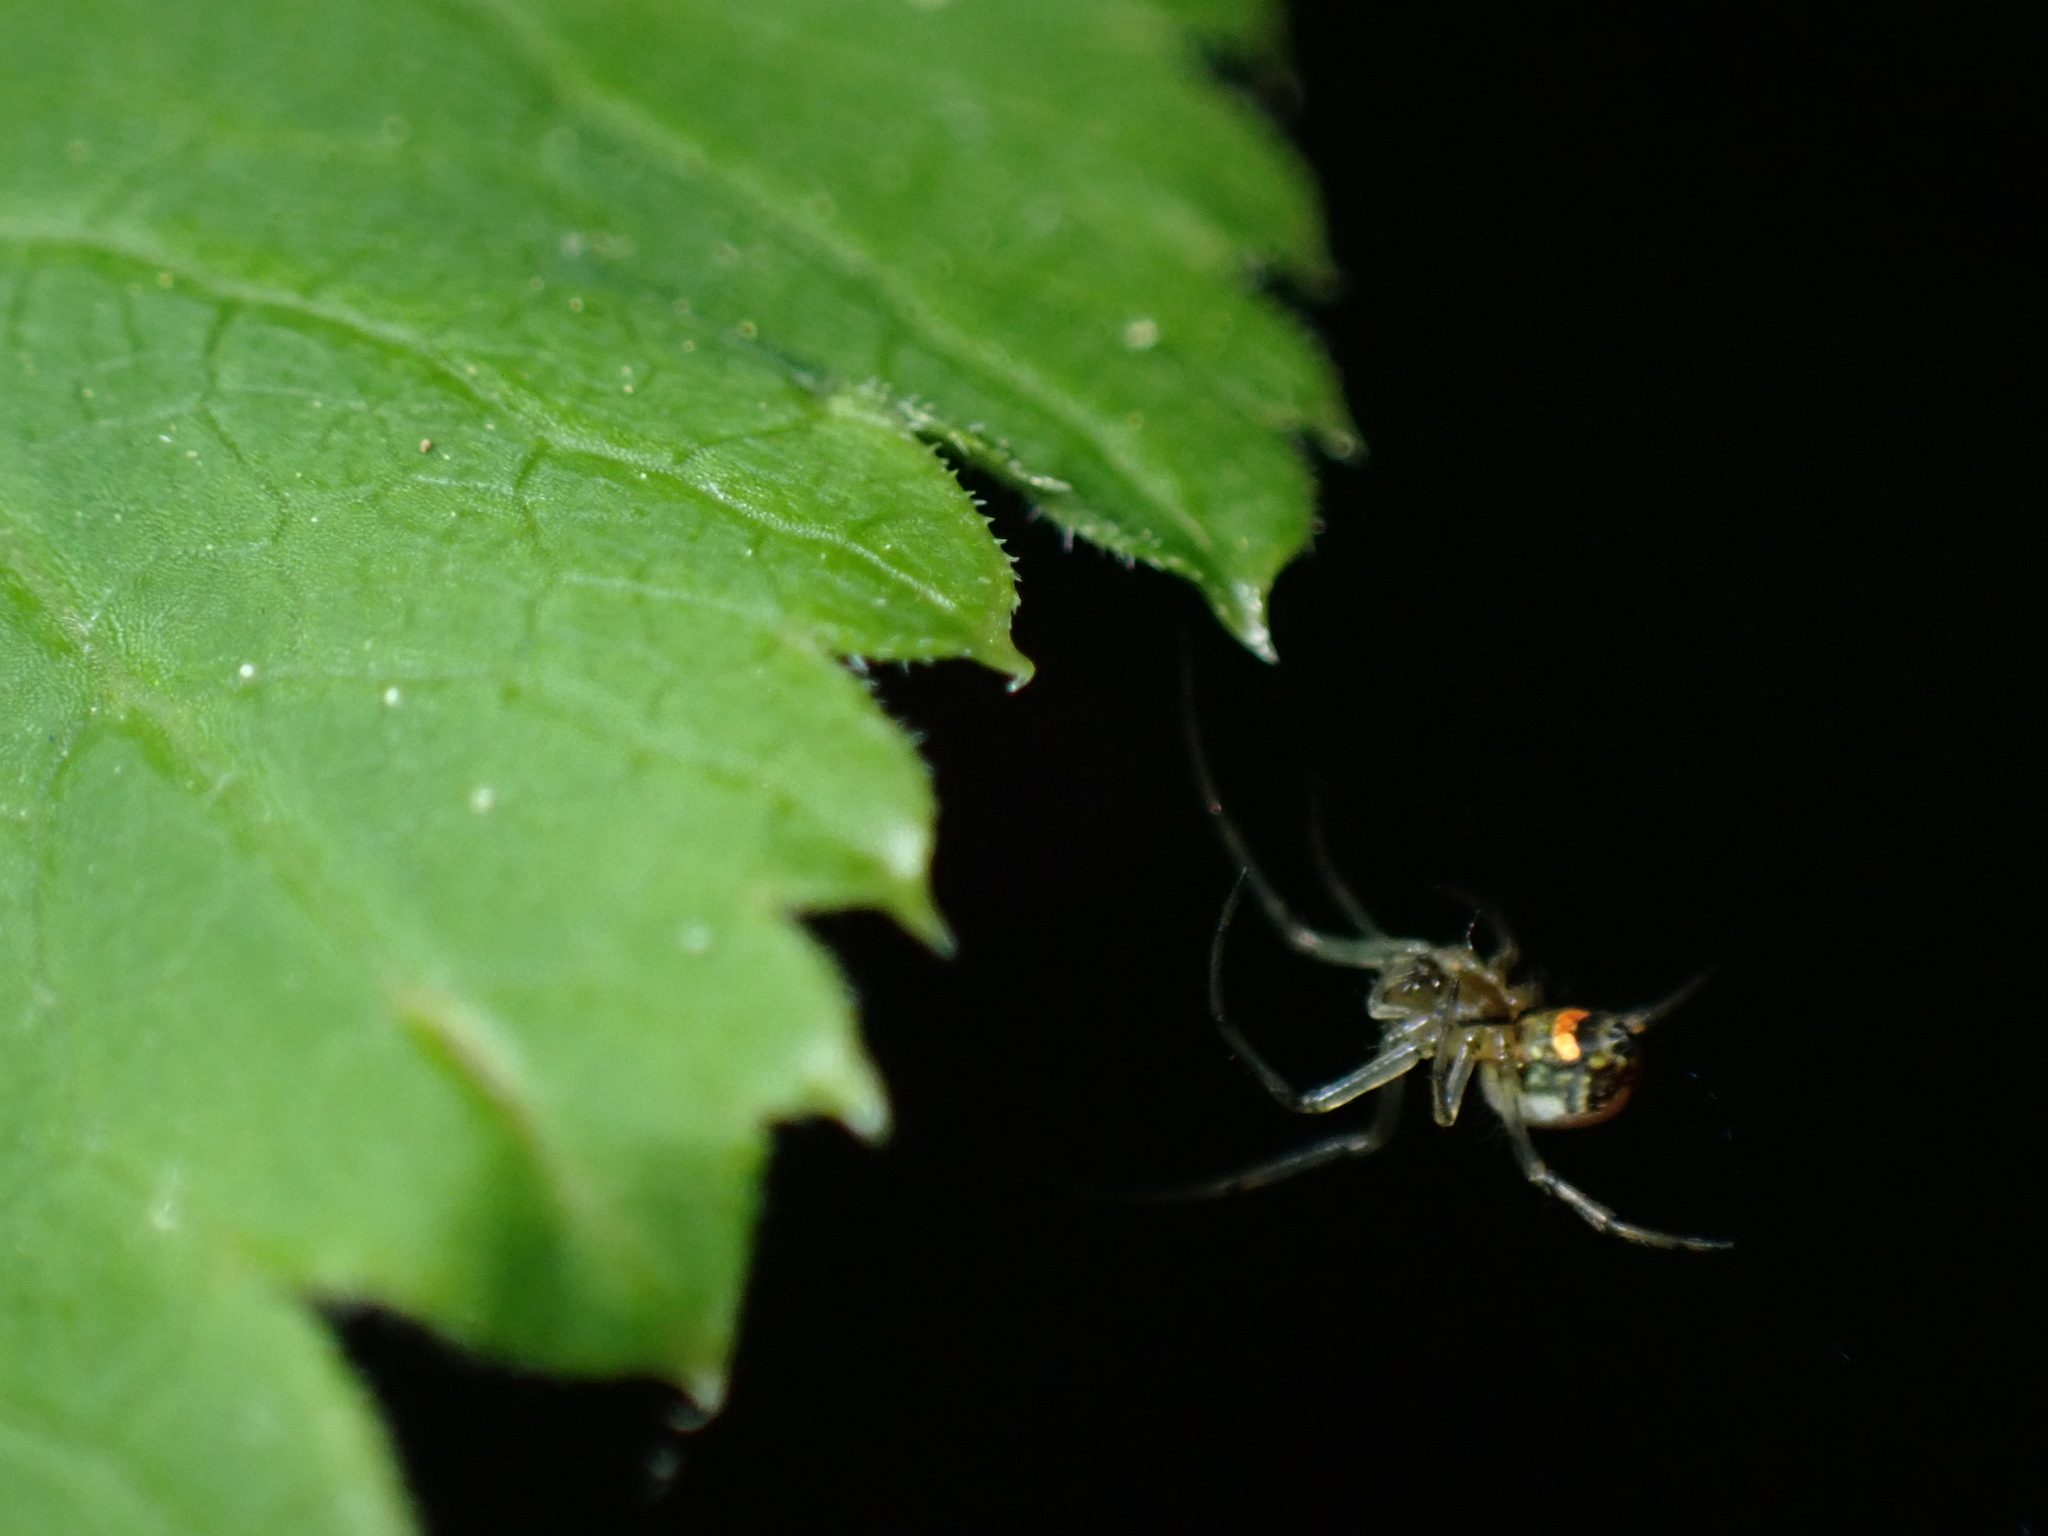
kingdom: Animalia
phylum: Arthropoda
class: Arachnida
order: Araneae
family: Tetragnathidae
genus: Leucauge
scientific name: Leucauge venusta
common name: Longjawed orb weavers
